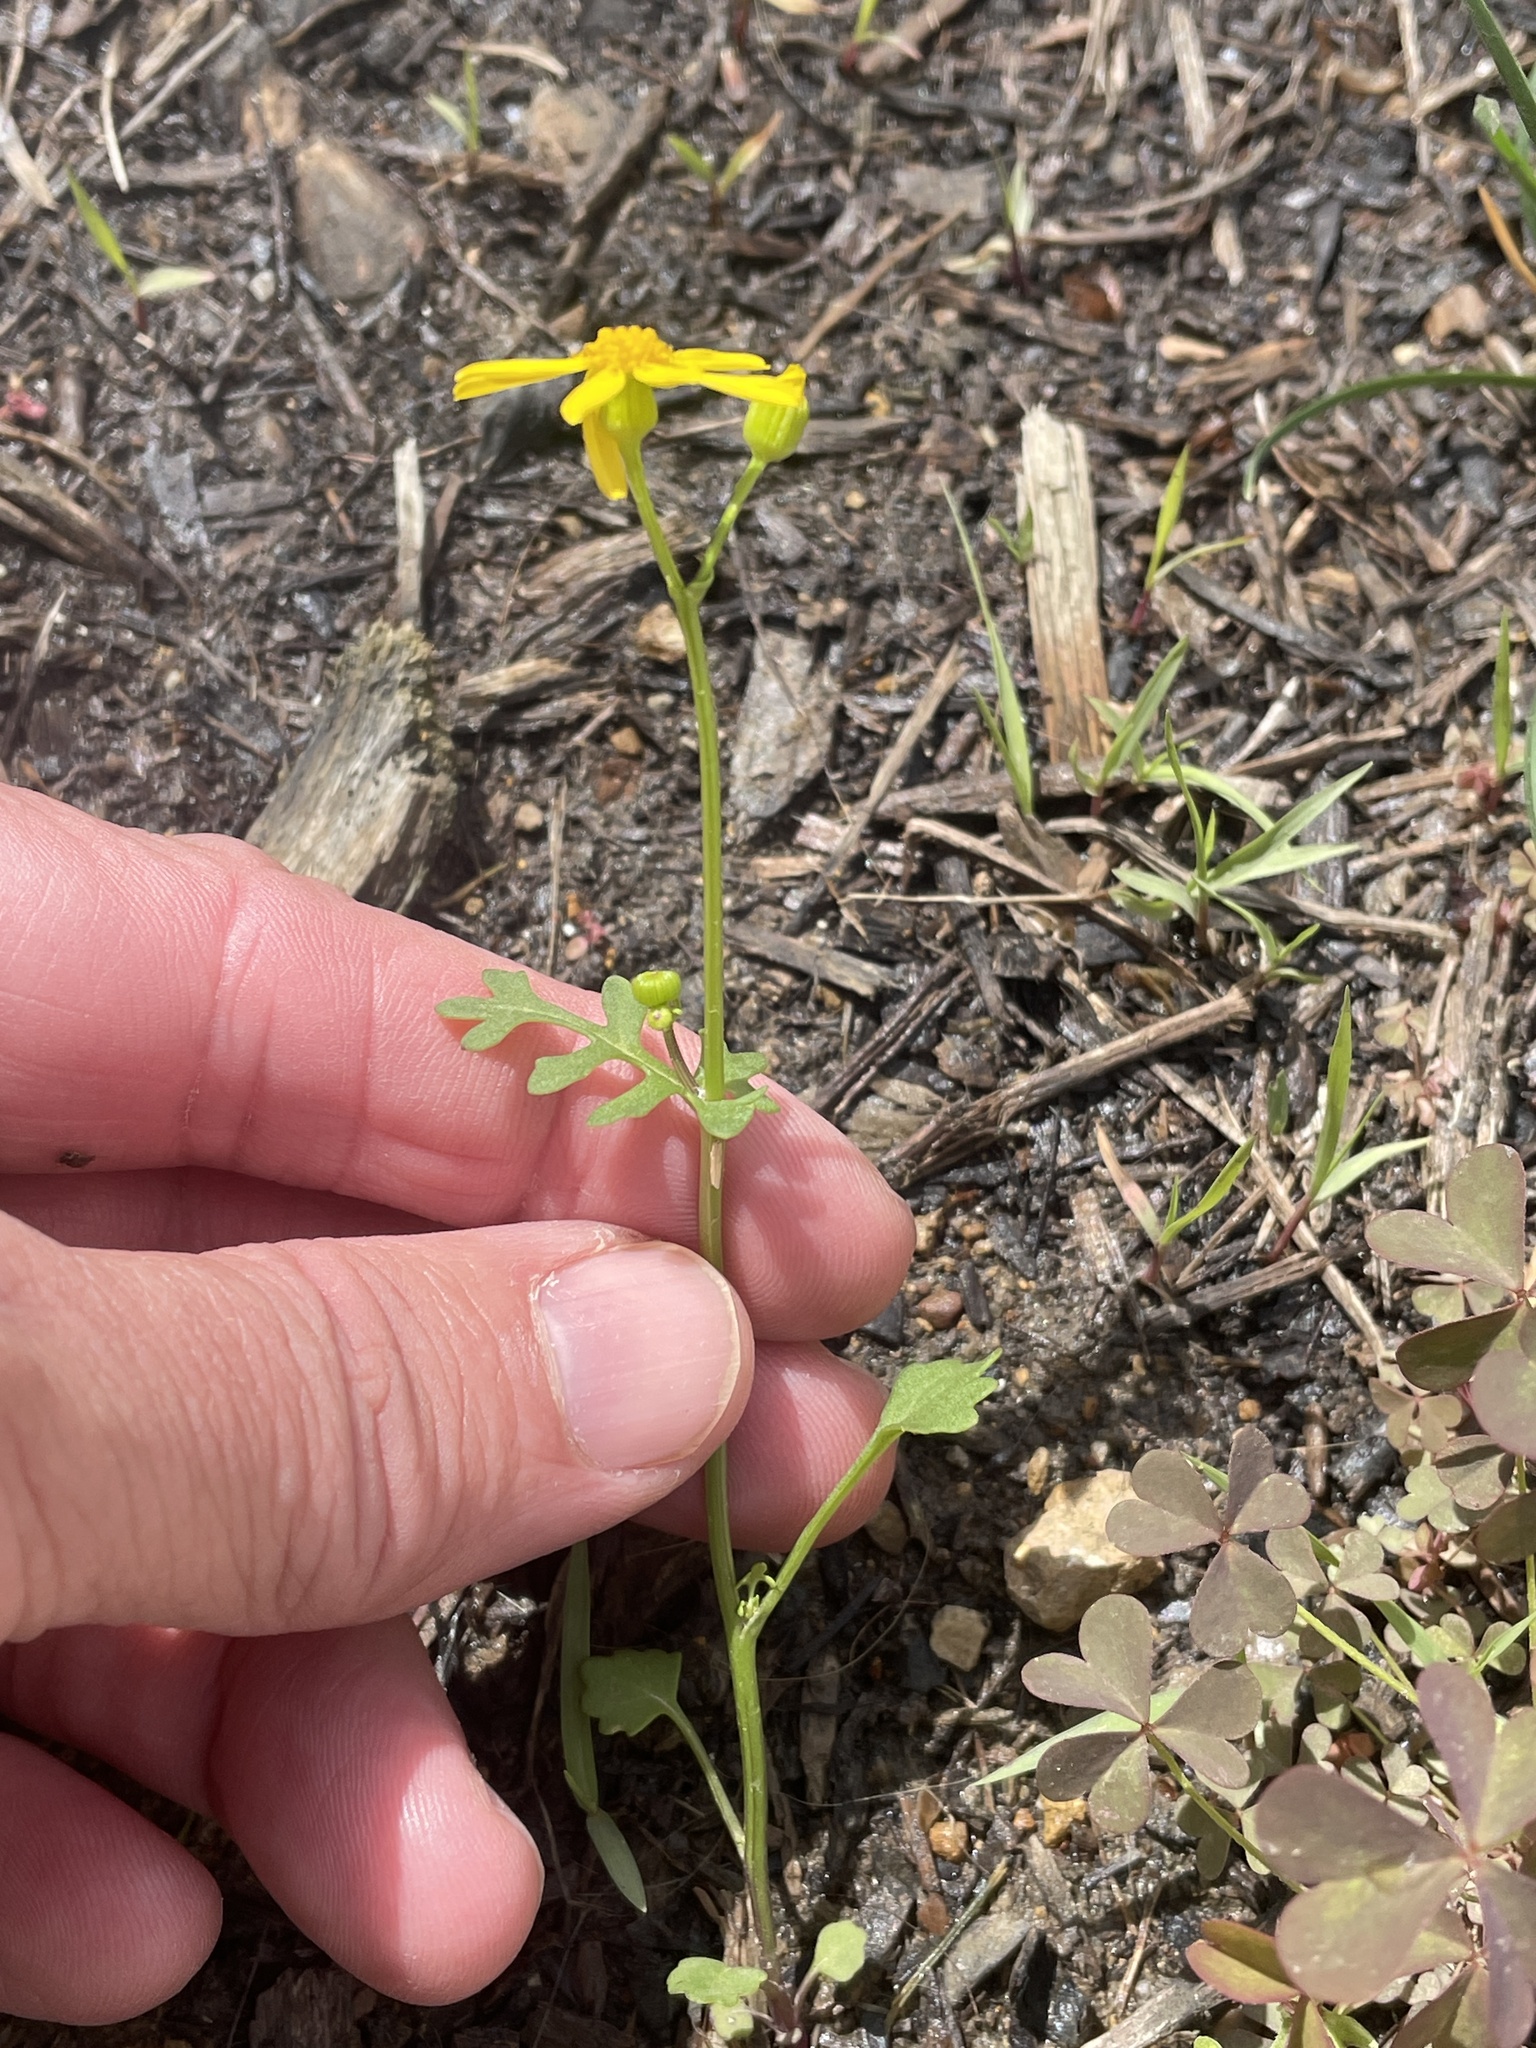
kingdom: Plantae
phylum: Tracheophyta
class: Magnoliopsida
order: Asterales
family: Asteraceae
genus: Packera
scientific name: Packera tampicana
